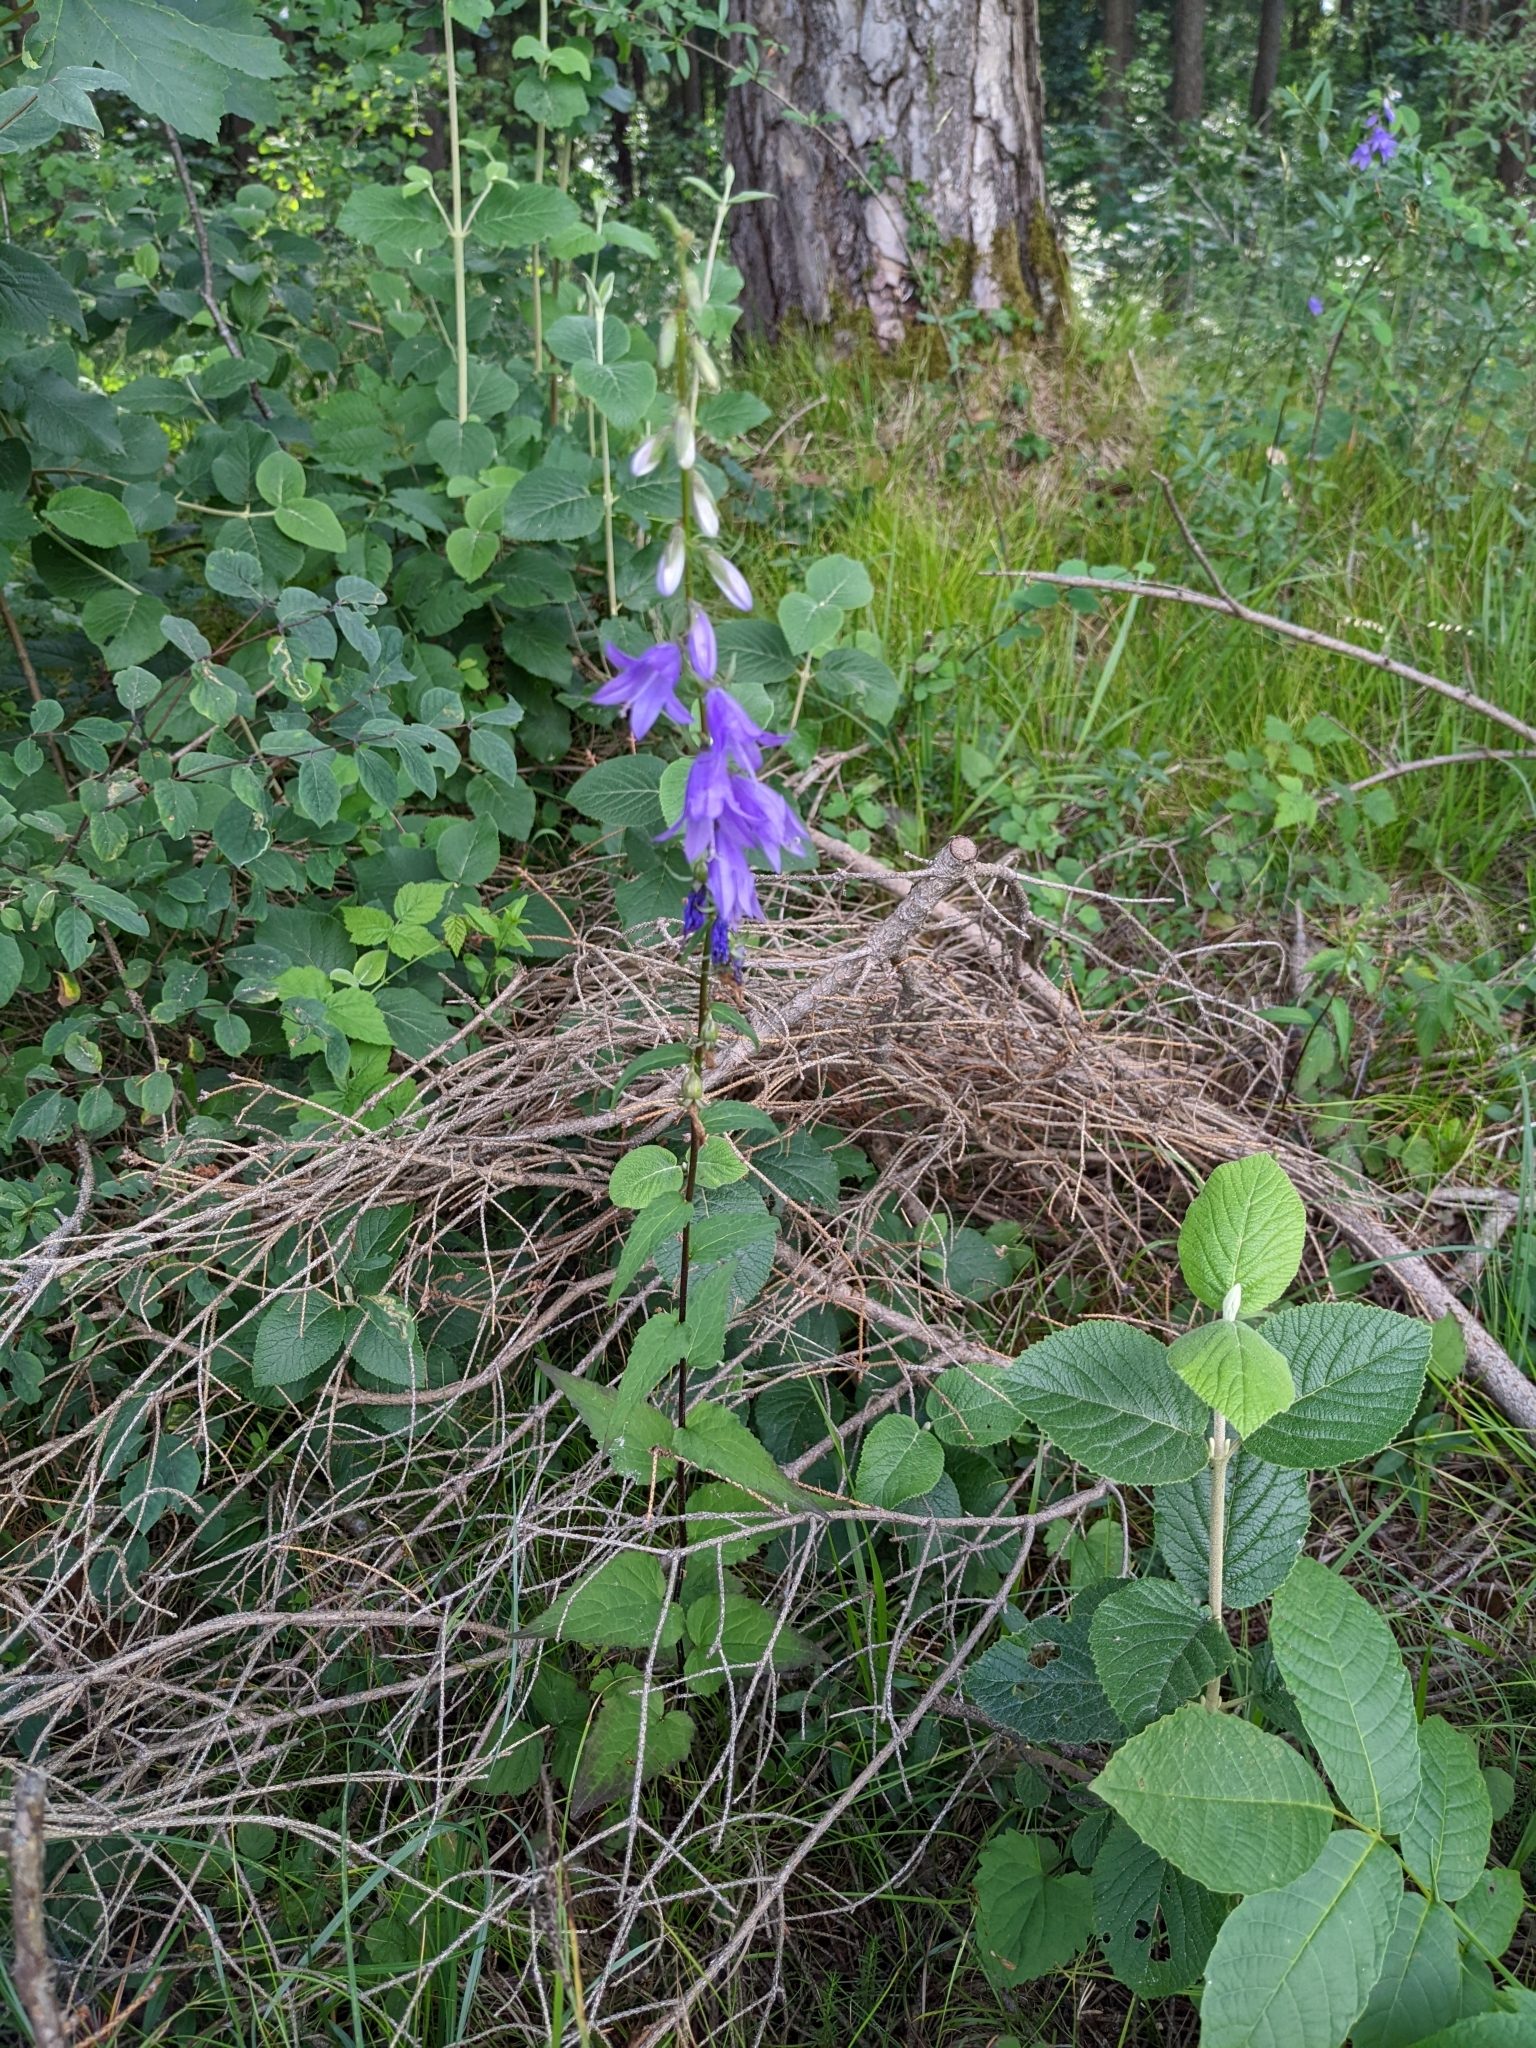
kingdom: Plantae
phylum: Tracheophyta
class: Magnoliopsida
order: Asterales
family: Campanulaceae
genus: Campanula
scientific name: Campanula rapunculoides
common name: Creeping bellflower
